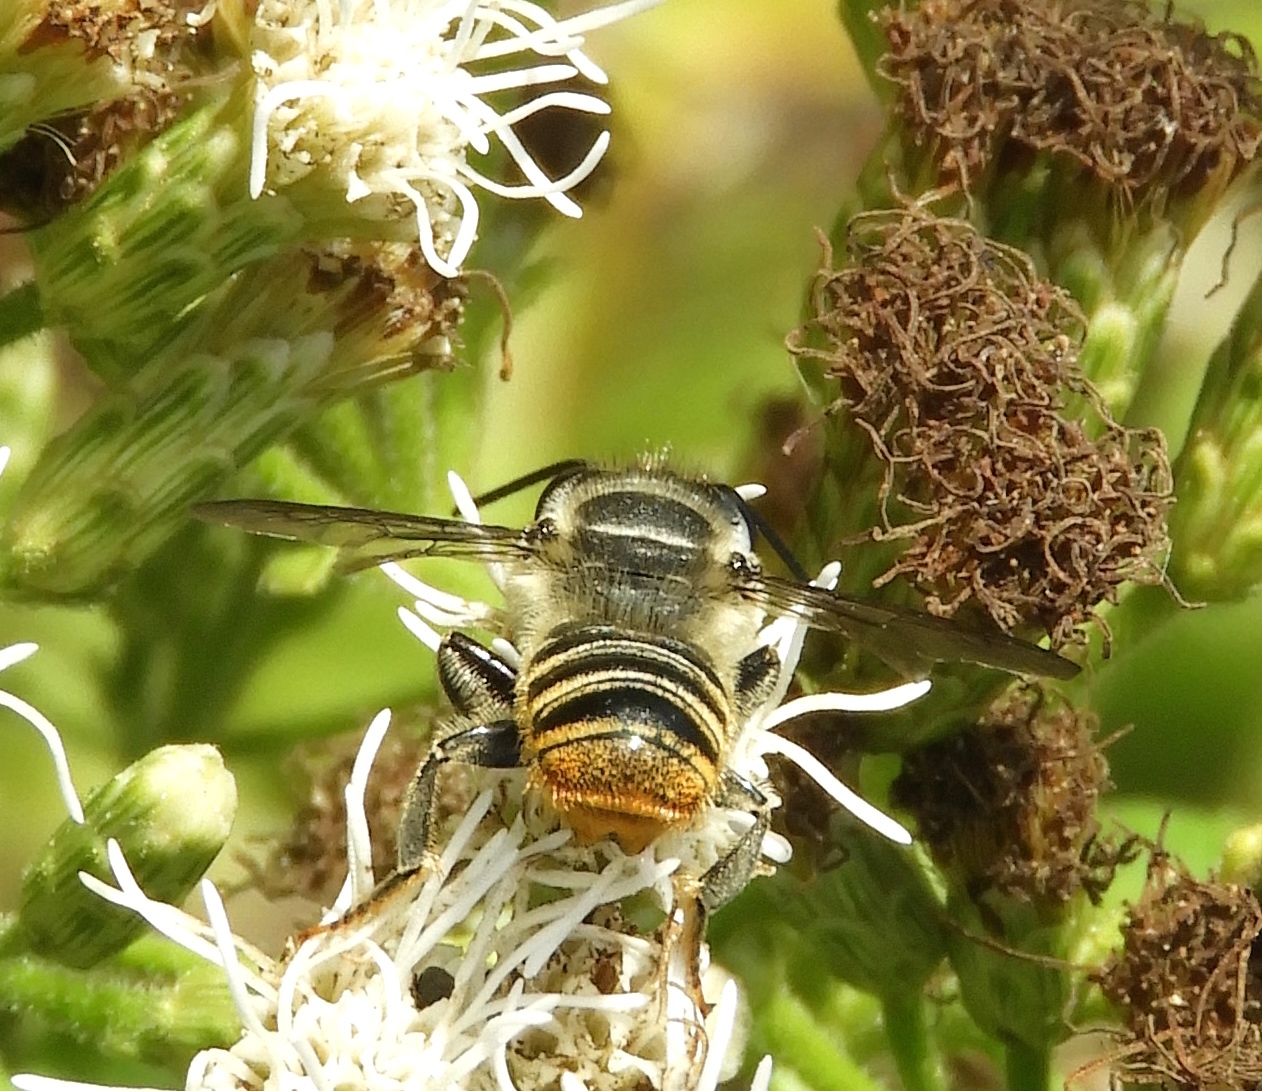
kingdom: Animalia
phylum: Arthropoda
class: Insecta
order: Hymenoptera
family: Megachilidae
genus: Megachile
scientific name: Megachile
